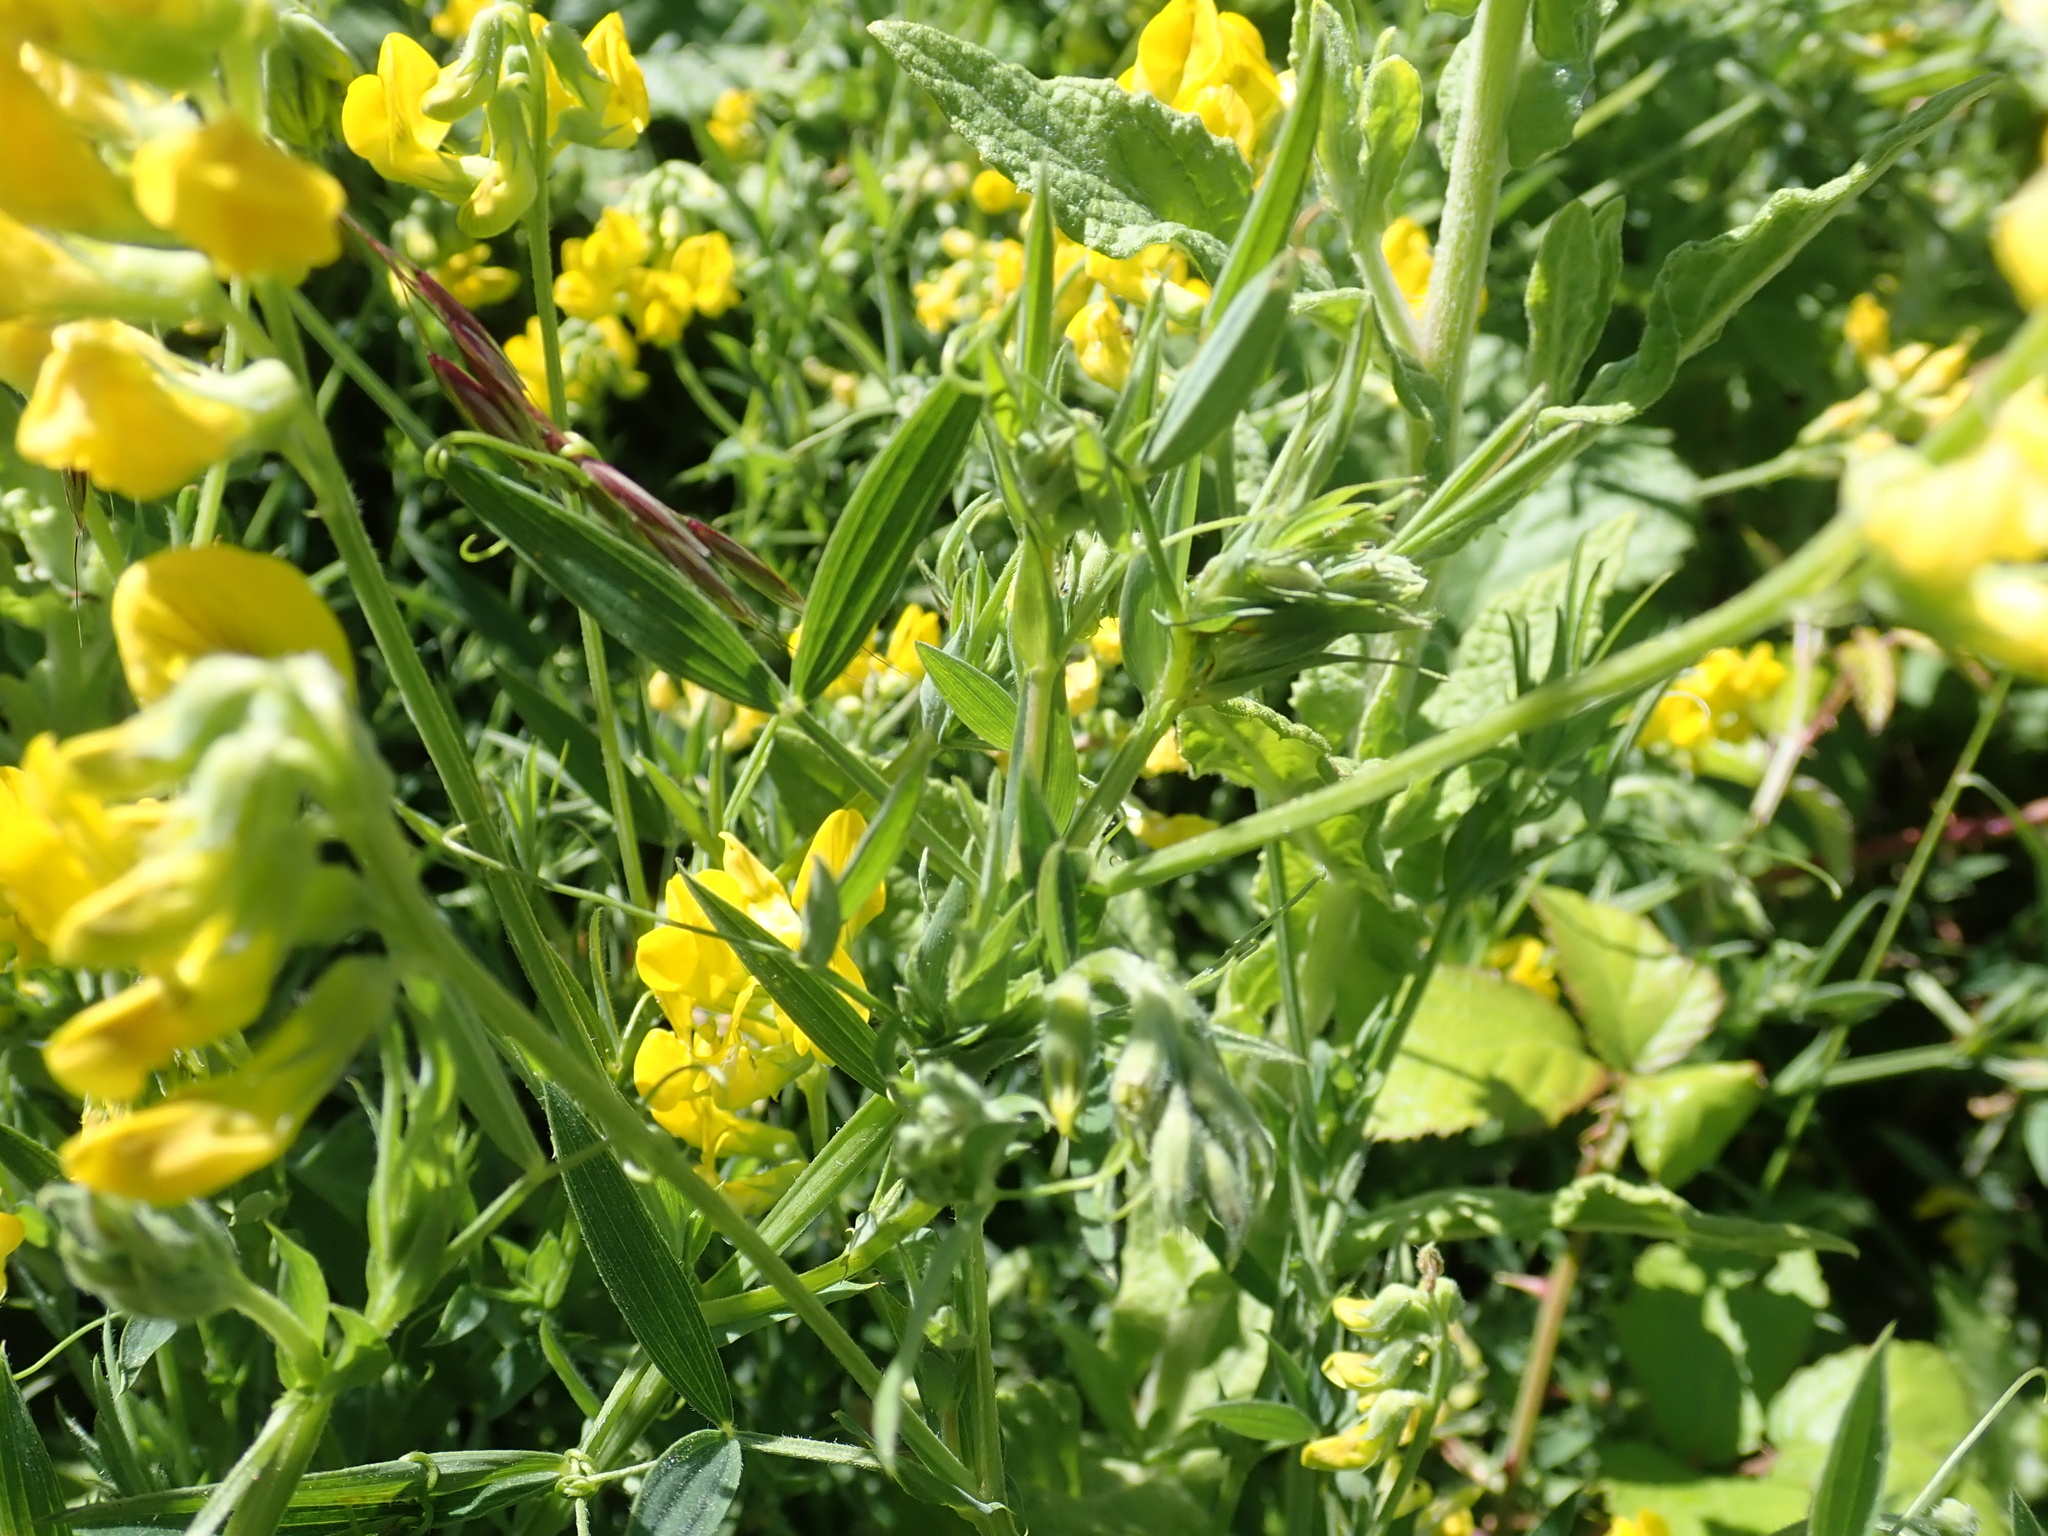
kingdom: Plantae
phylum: Tracheophyta
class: Magnoliopsida
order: Fabales
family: Fabaceae
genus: Lathyrus
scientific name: Lathyrus pratensis
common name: Meadow vetchling
